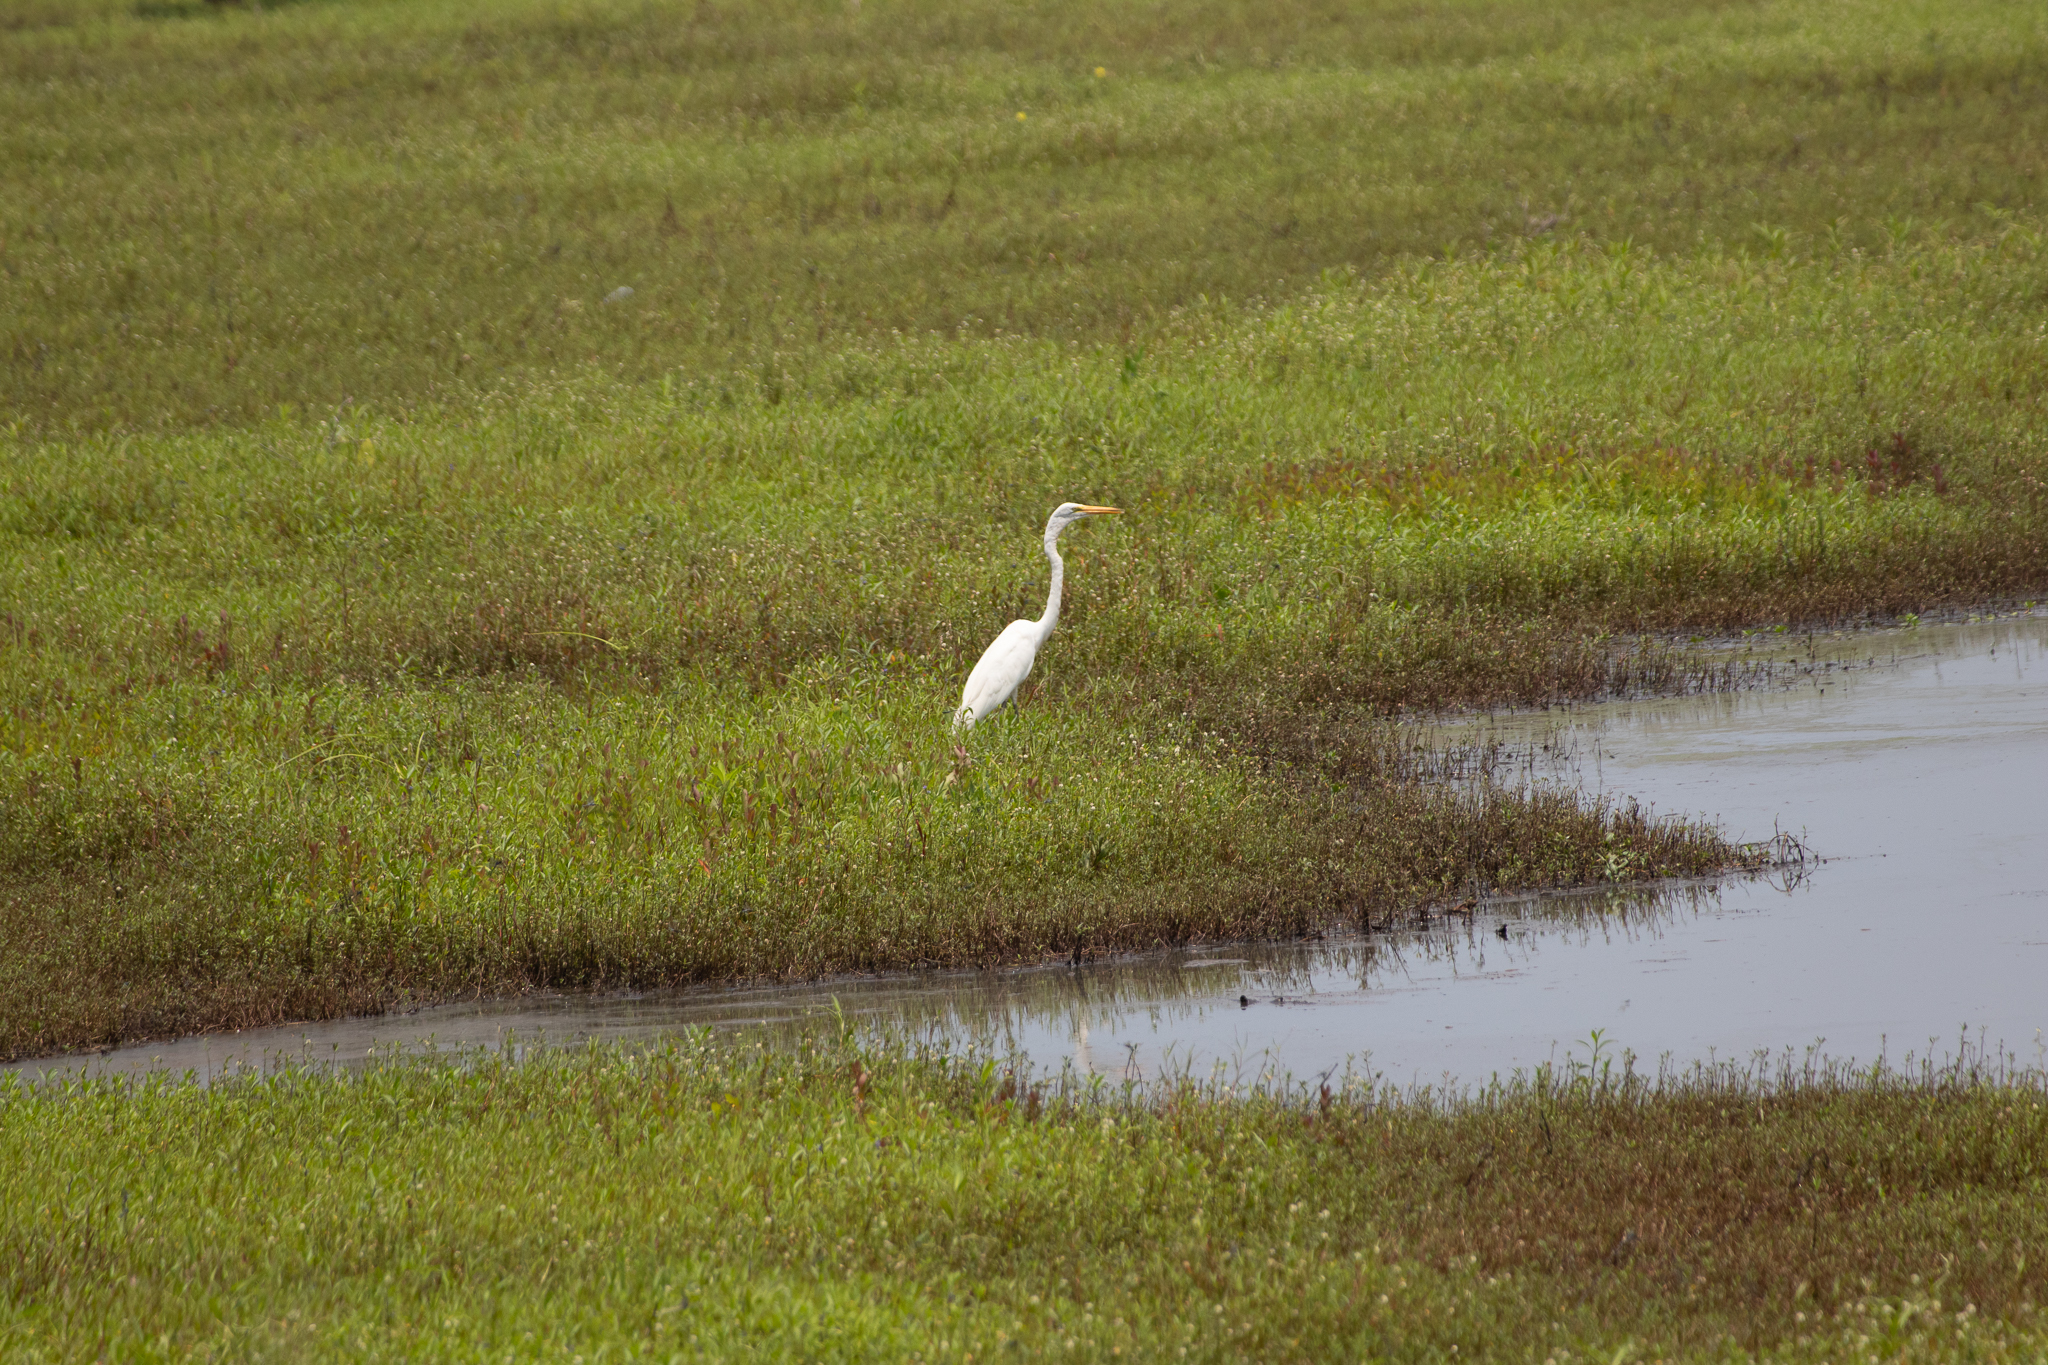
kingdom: Animalia
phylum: Chordata
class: Aves
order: Pelecaniformes
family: Ardeidae
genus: Ardea
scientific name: Ardea alba
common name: Great egret
